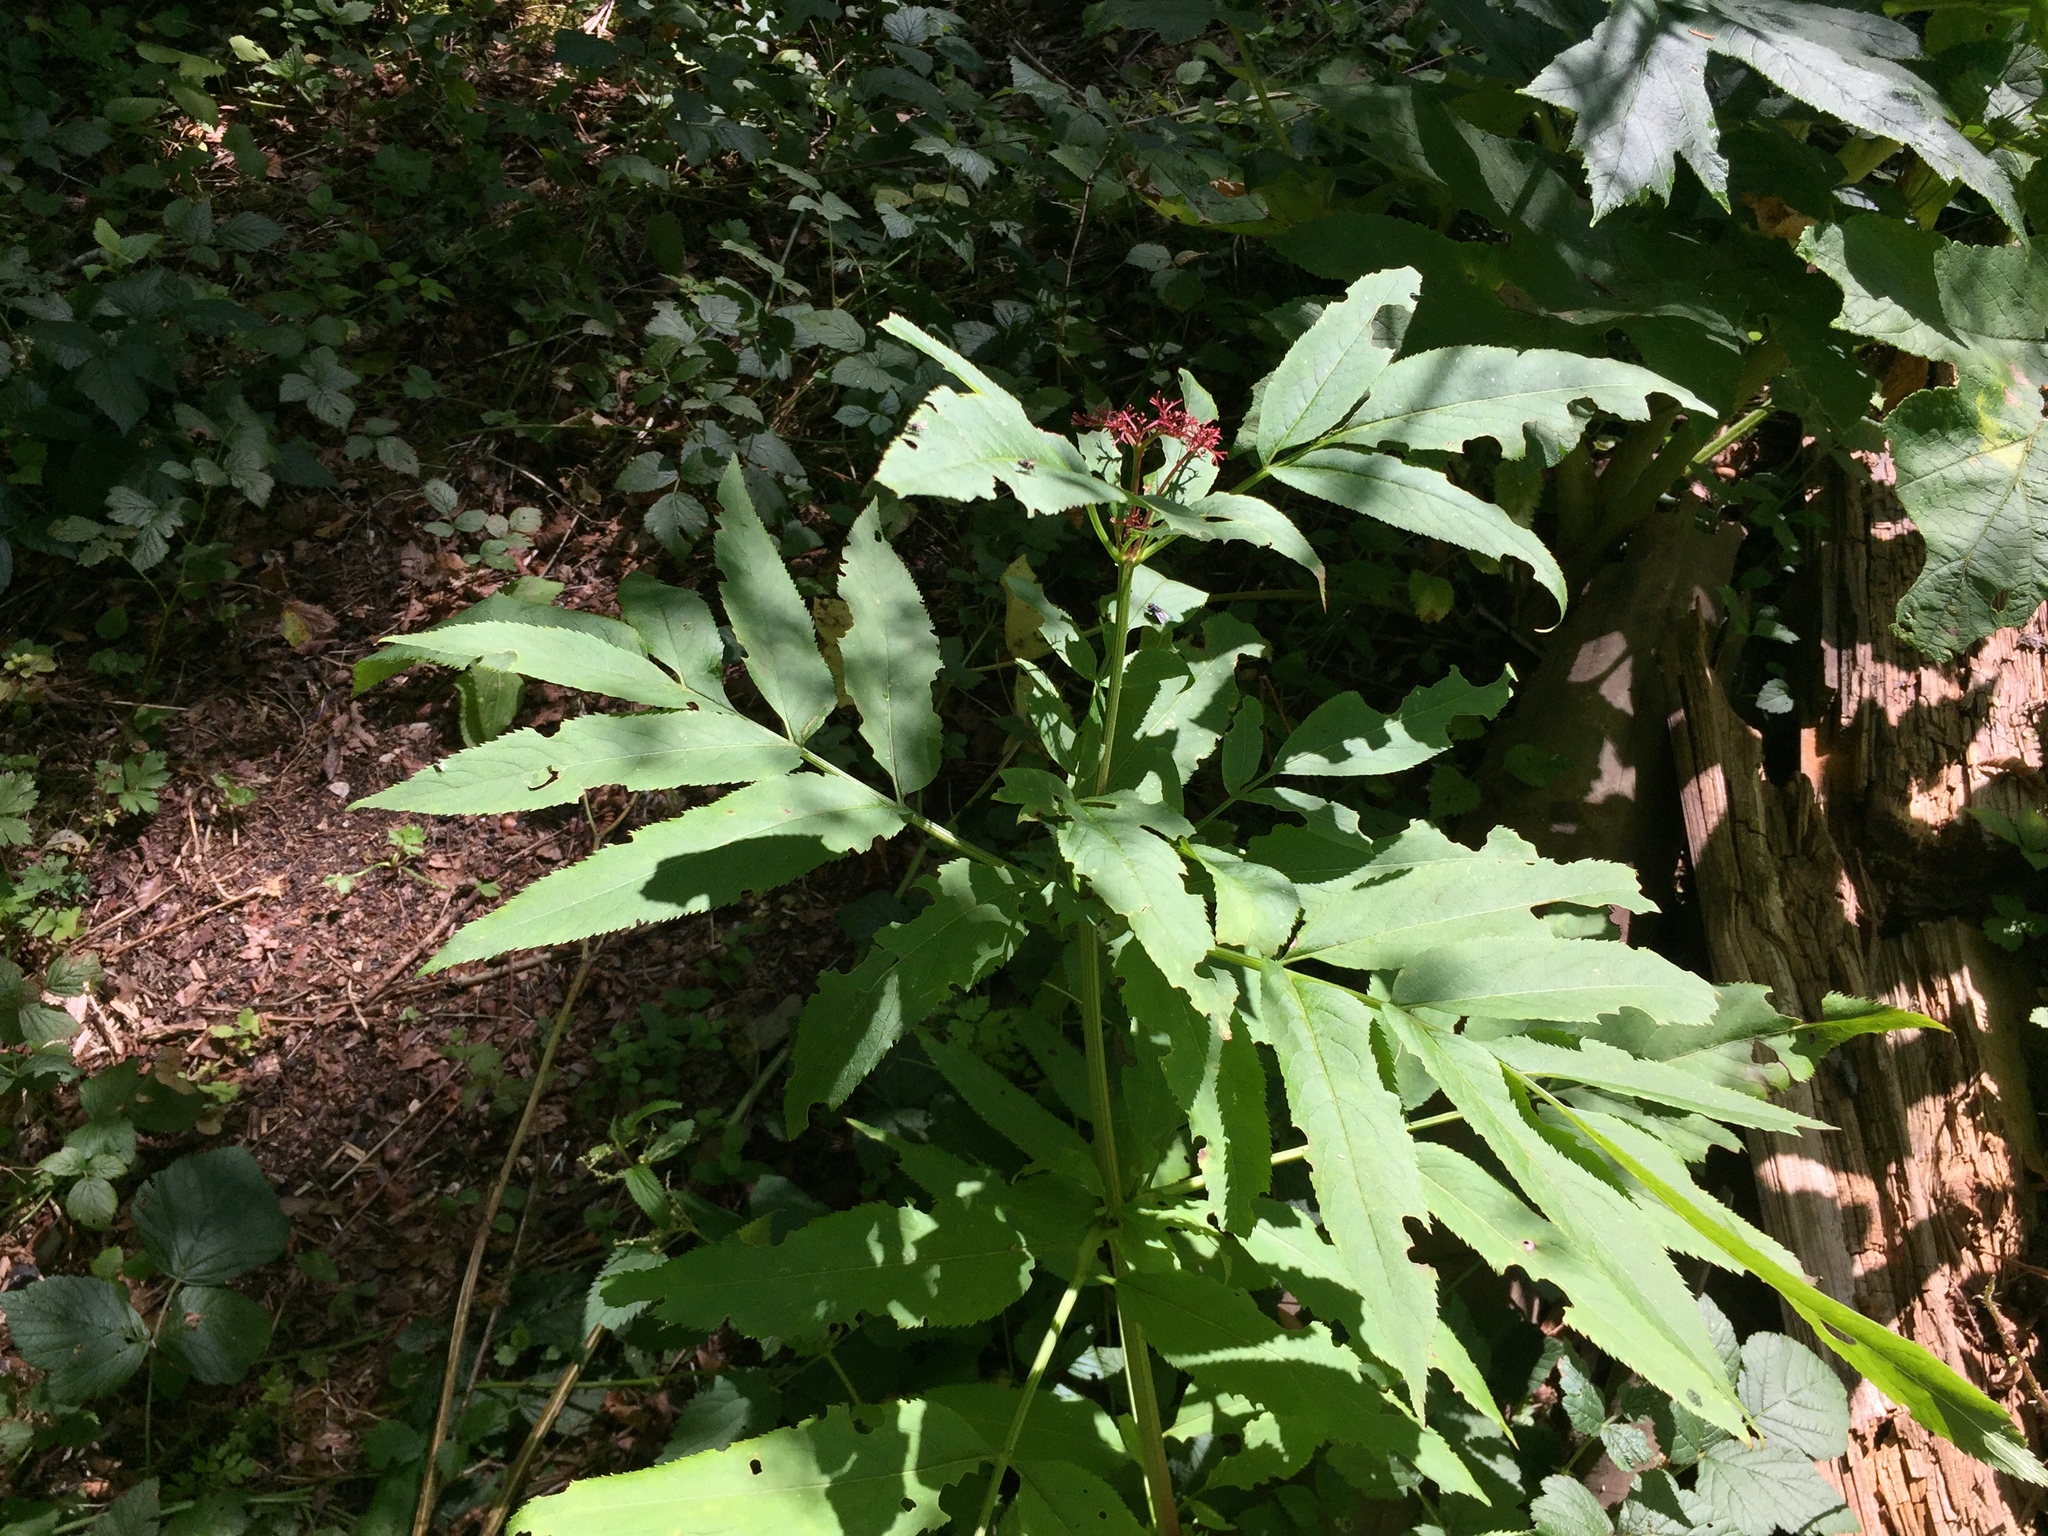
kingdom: Plantae
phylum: Tracheophyta
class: Magnoliopsida
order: Dipsacales
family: Viburnaceae
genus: Sambucus
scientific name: Sambucus ebulus
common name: Dwarf elder
